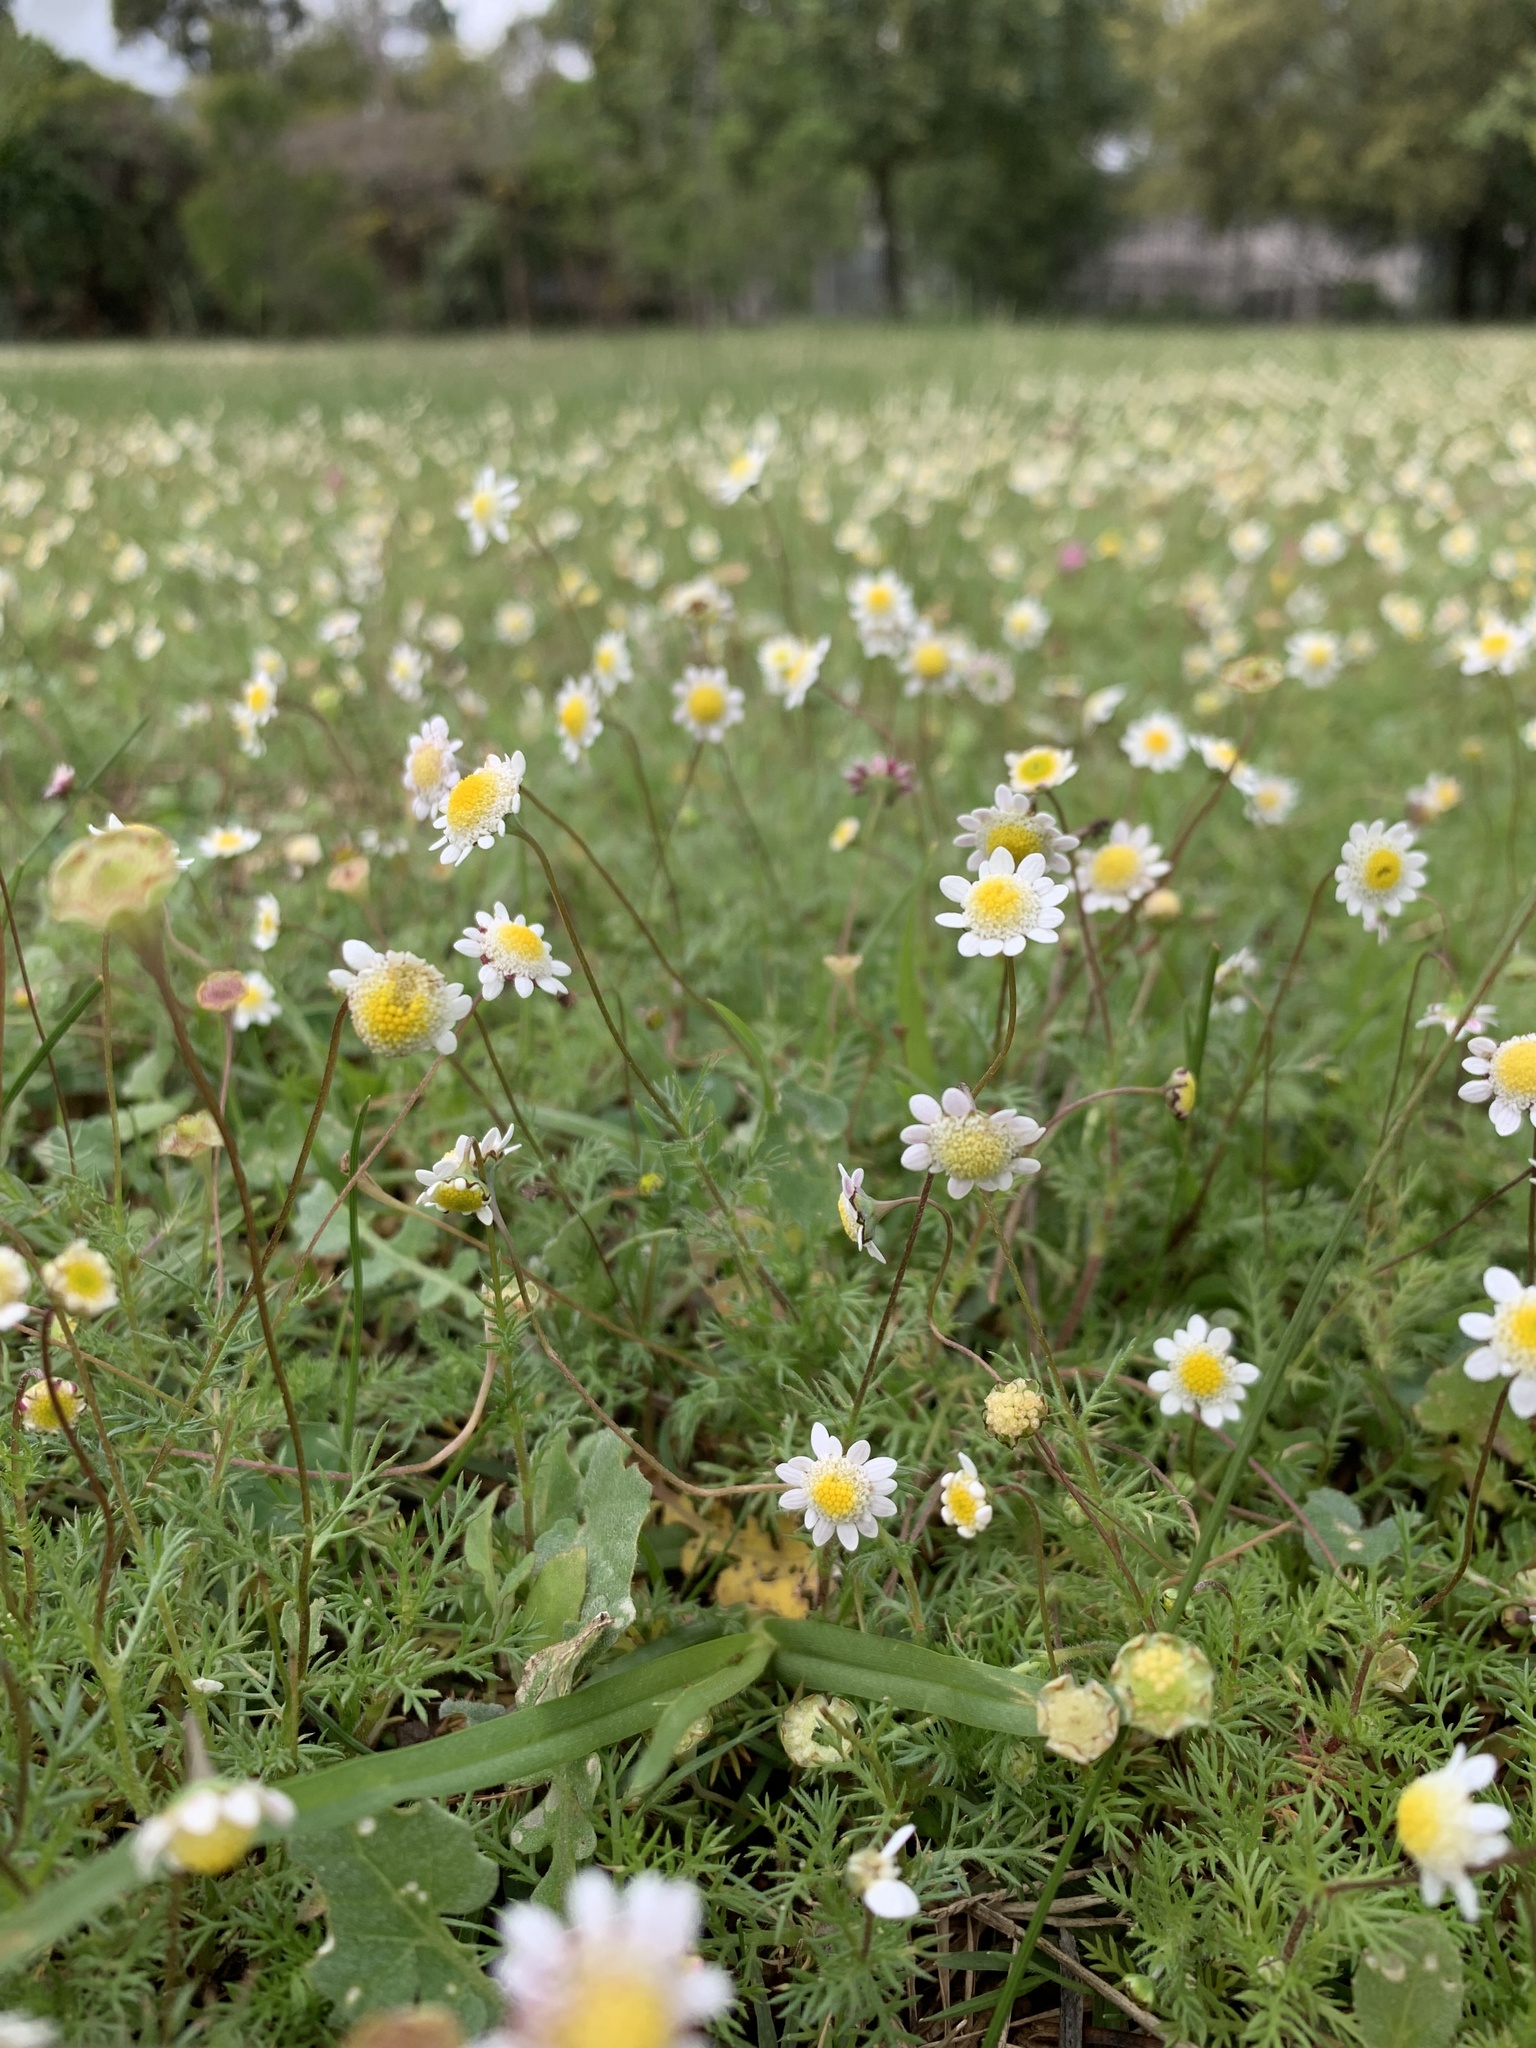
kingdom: Plantae
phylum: Tracheophyta
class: Magnoliopsida
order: Asterales
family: Asteraceae
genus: Cotula
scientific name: Cotula turbinata
